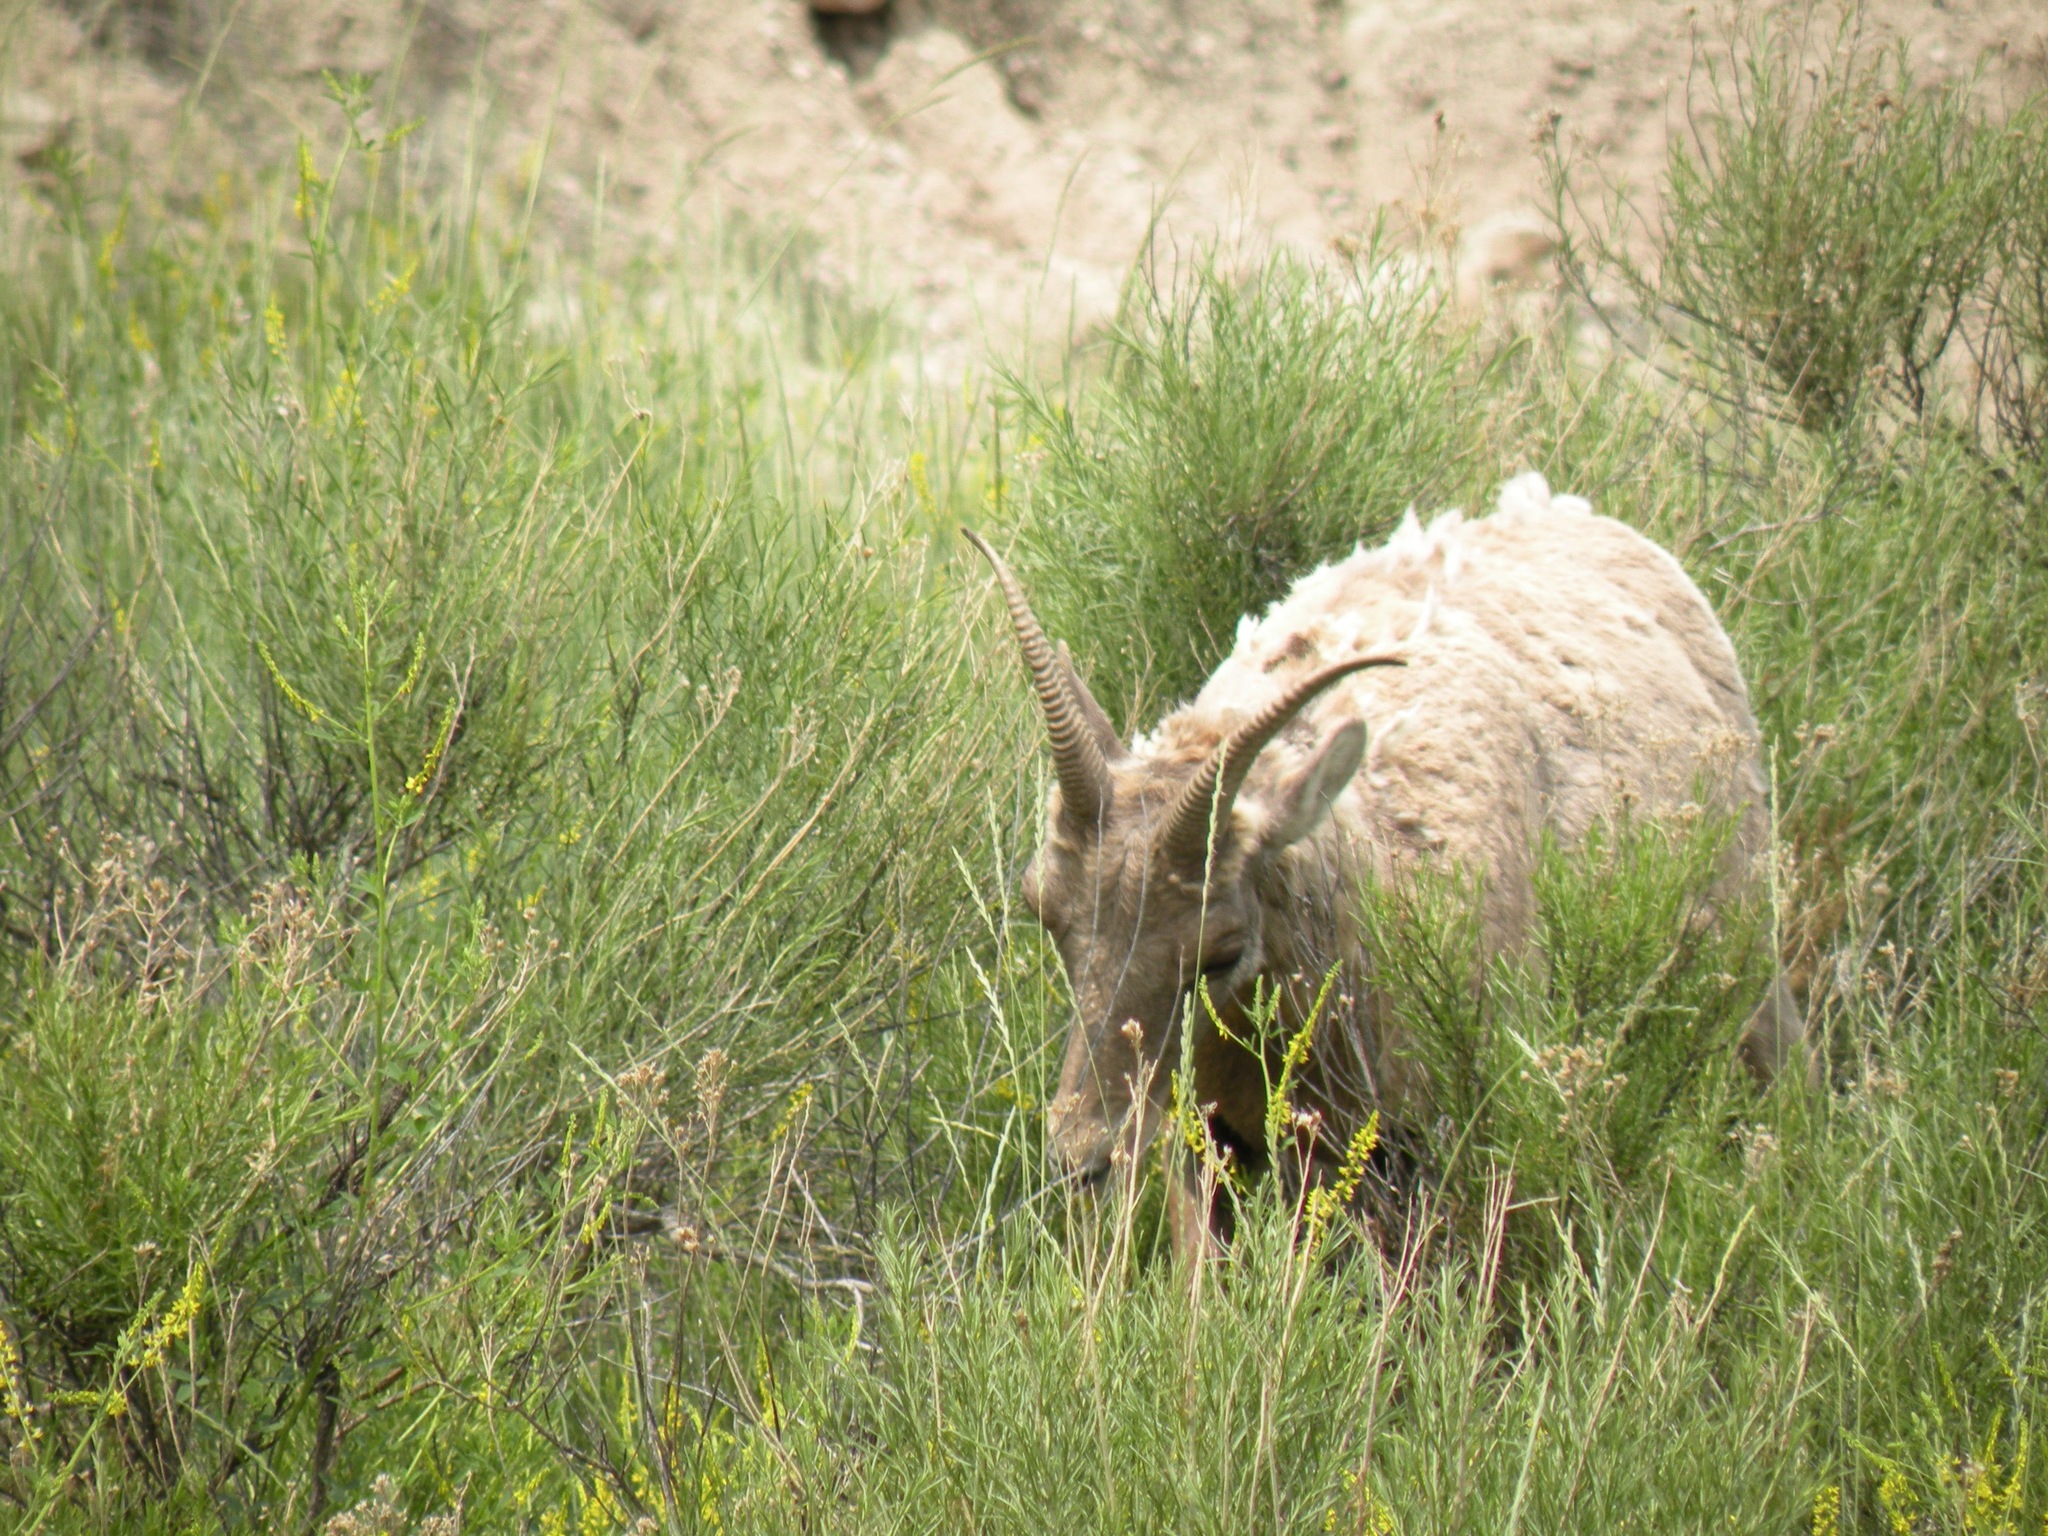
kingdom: Animalia
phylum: Chordata
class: Mammalia
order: Artiodactyla
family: Bovidae
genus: Ovis
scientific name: Ovis canadensis
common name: Bighorn sheep
